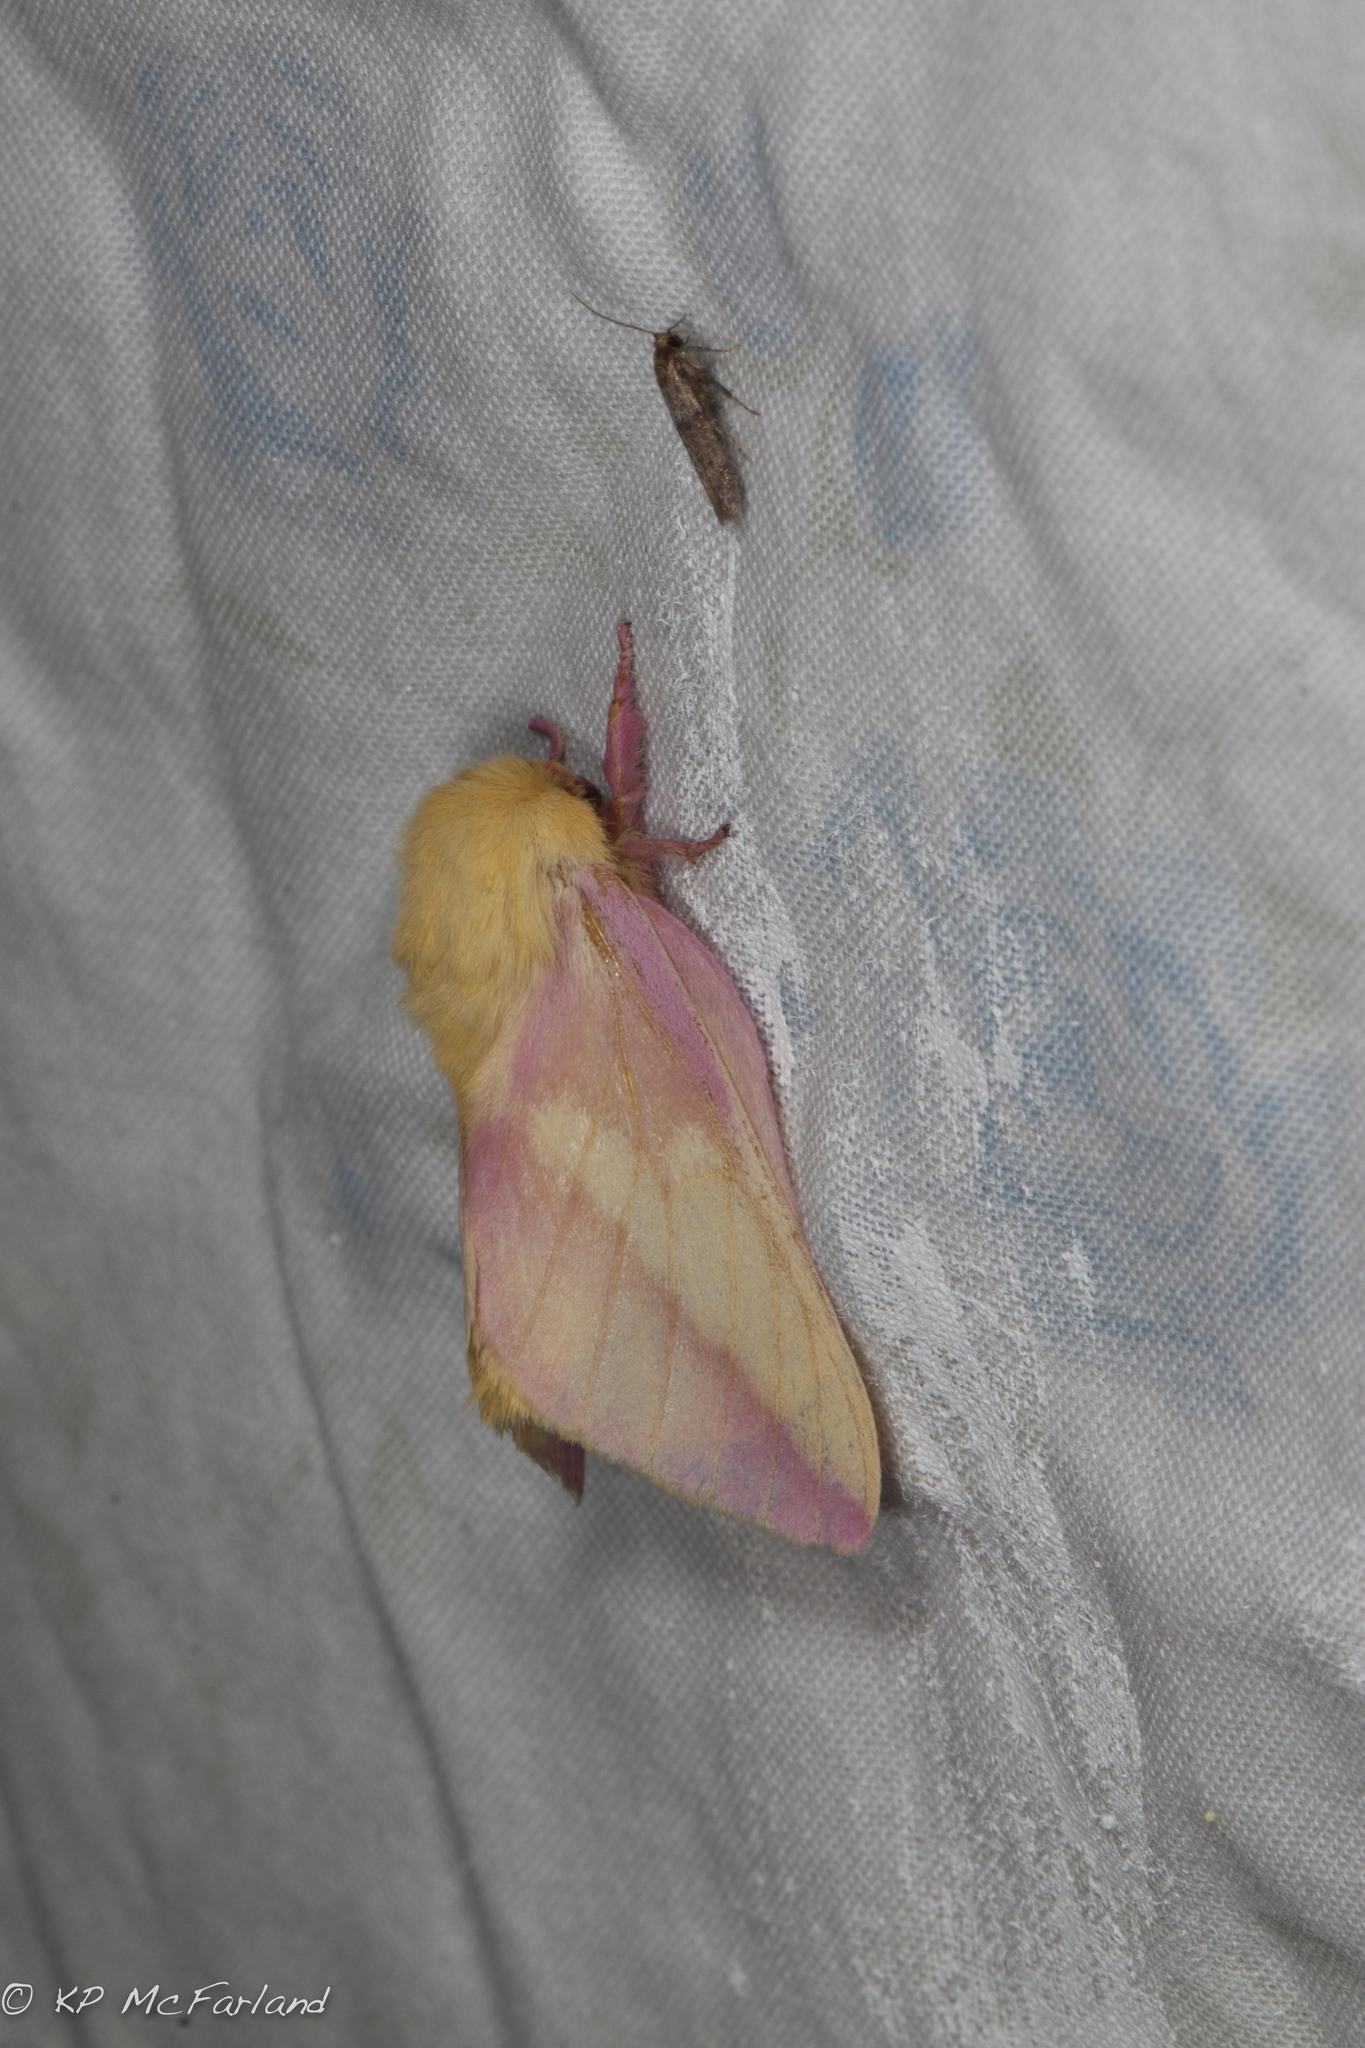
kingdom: Animalia
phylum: Arthropoda
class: Insecta
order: Lepidoptera
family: Saturniidae
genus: Dryocampa
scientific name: Dryocampa rubicunda
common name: Rosy maple moth
